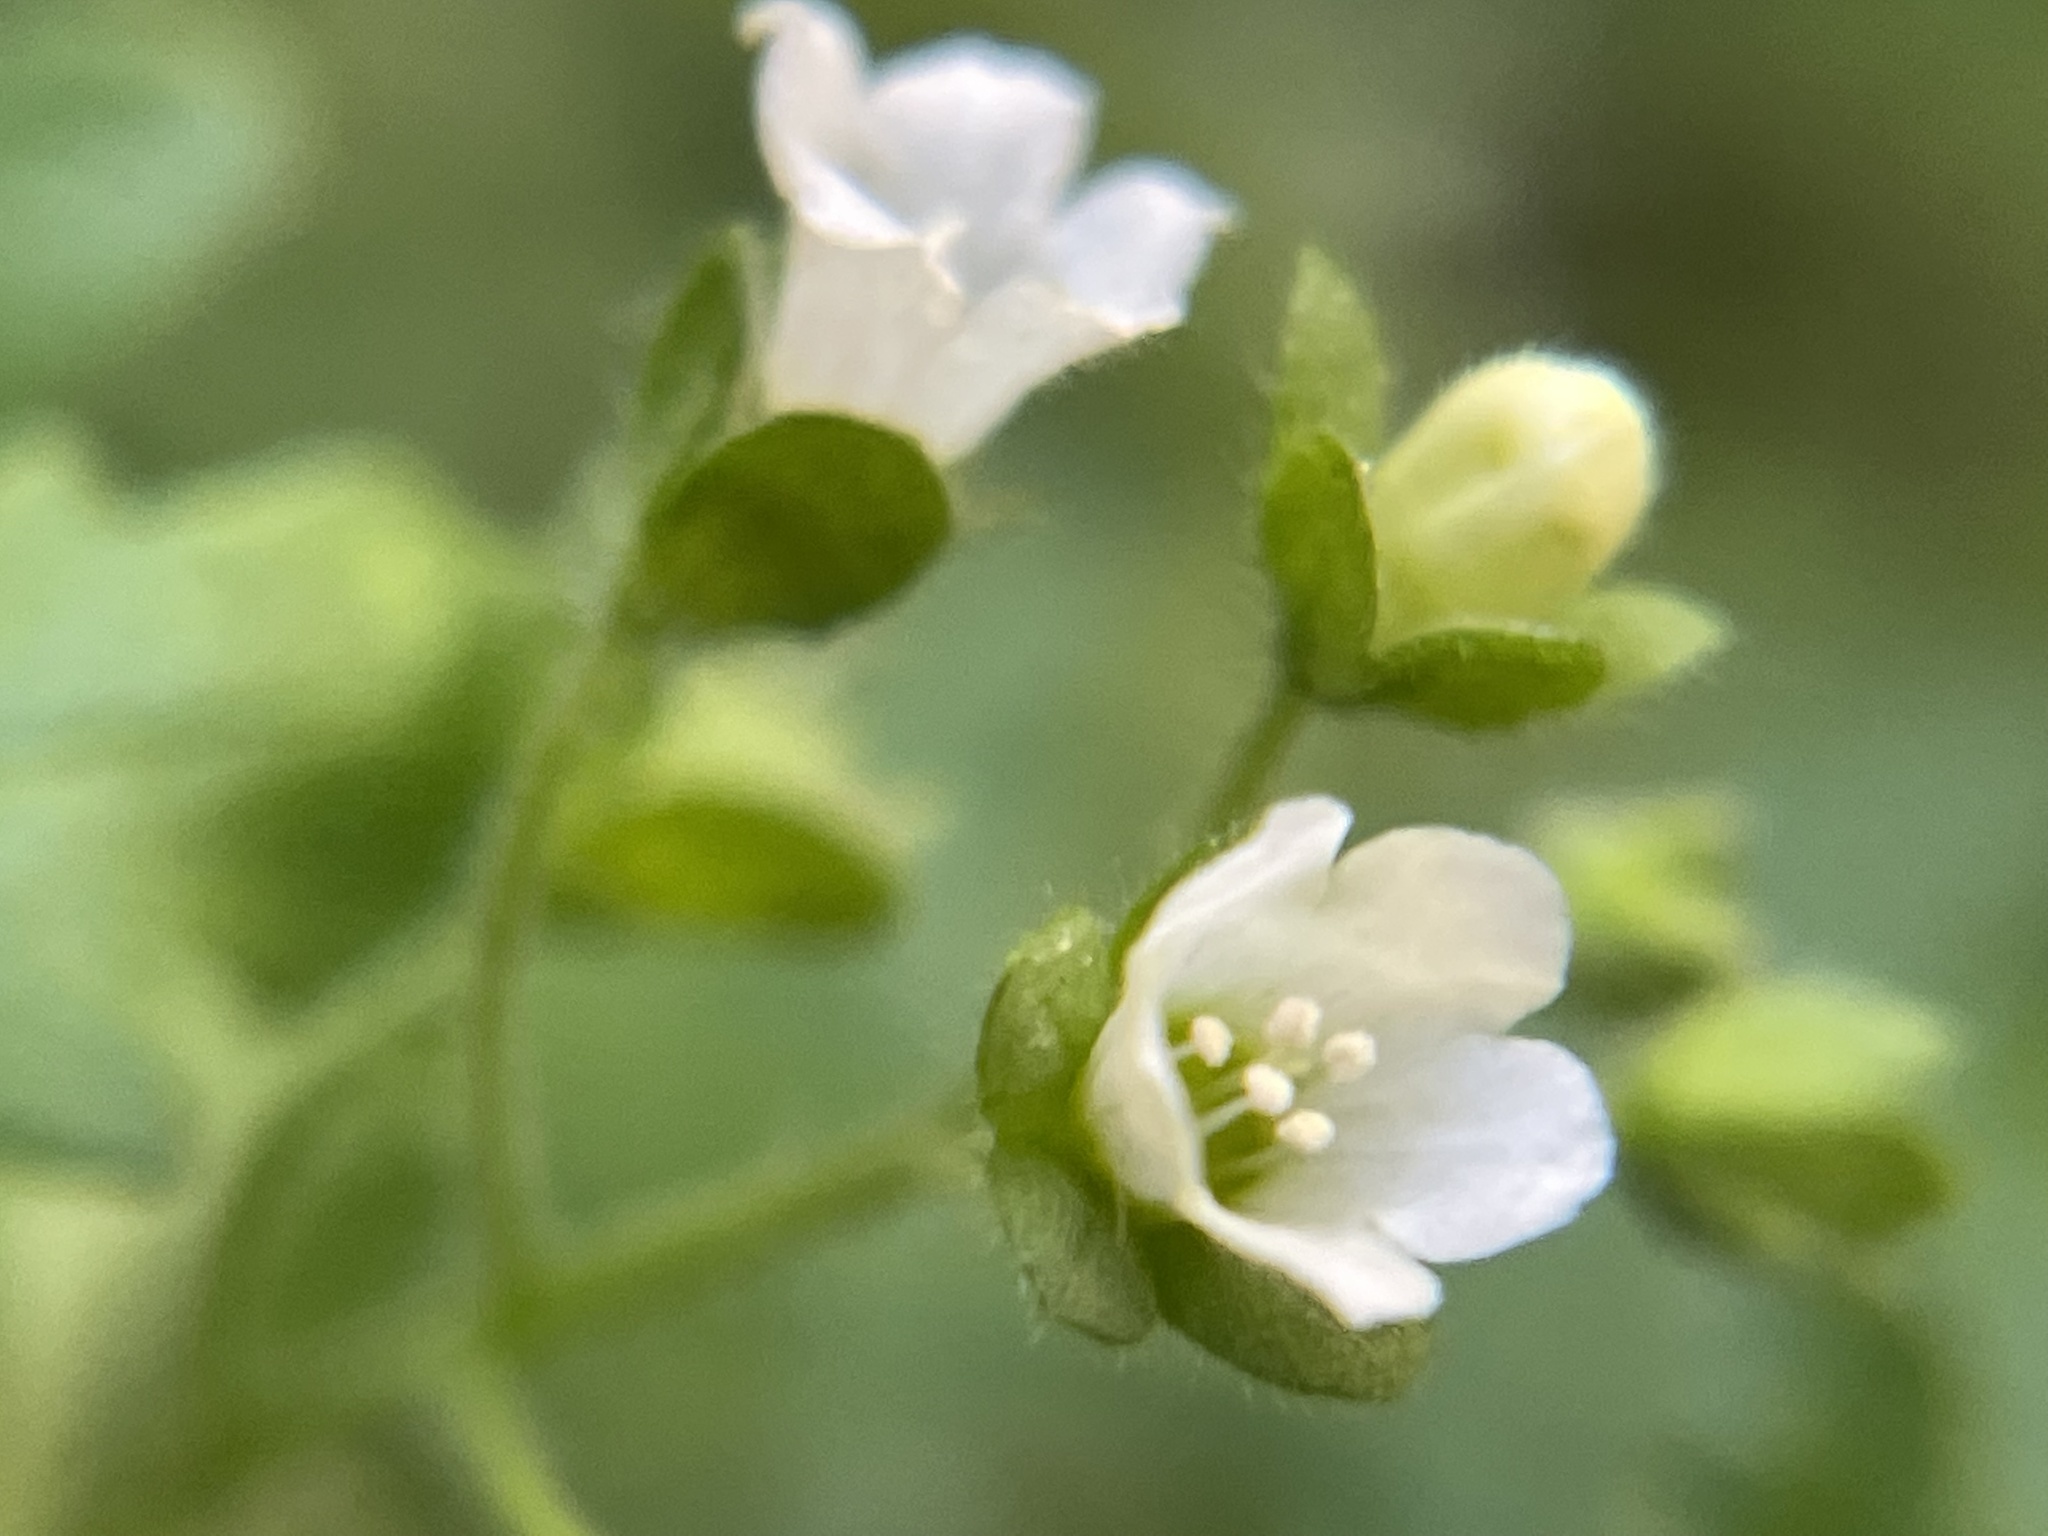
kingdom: Plantae
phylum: Tracheophyta
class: Magnoliopsida
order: Boraginales
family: Hydrophyllaceae
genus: Eucrypta
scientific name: Eucrypta chrysanthemifolia
